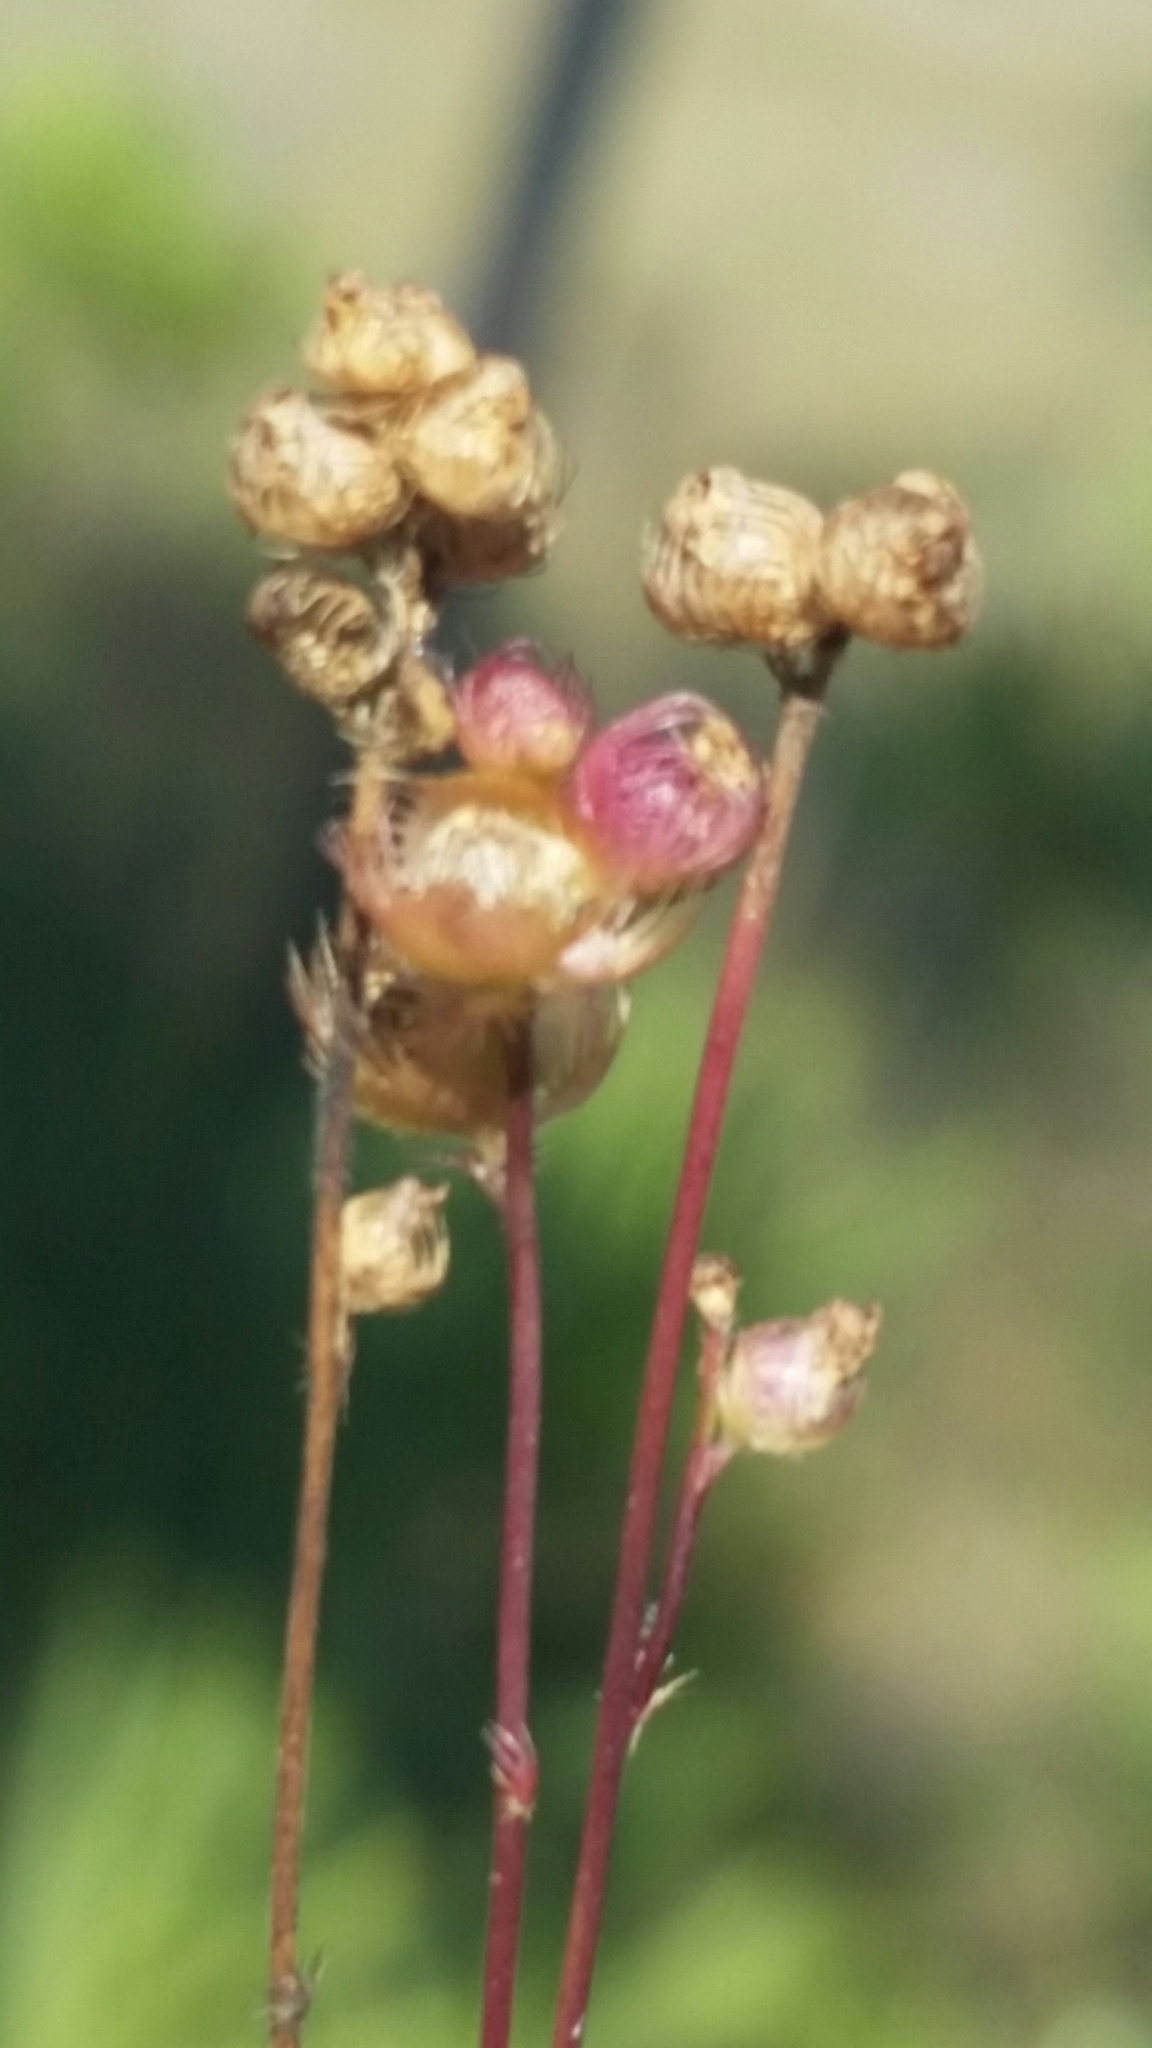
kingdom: Plantae
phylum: Tracheophyta
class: Magnoliopsida
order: Lamiales
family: Lentibulariaceae
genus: Utricularia
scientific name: Utricularia simulans
